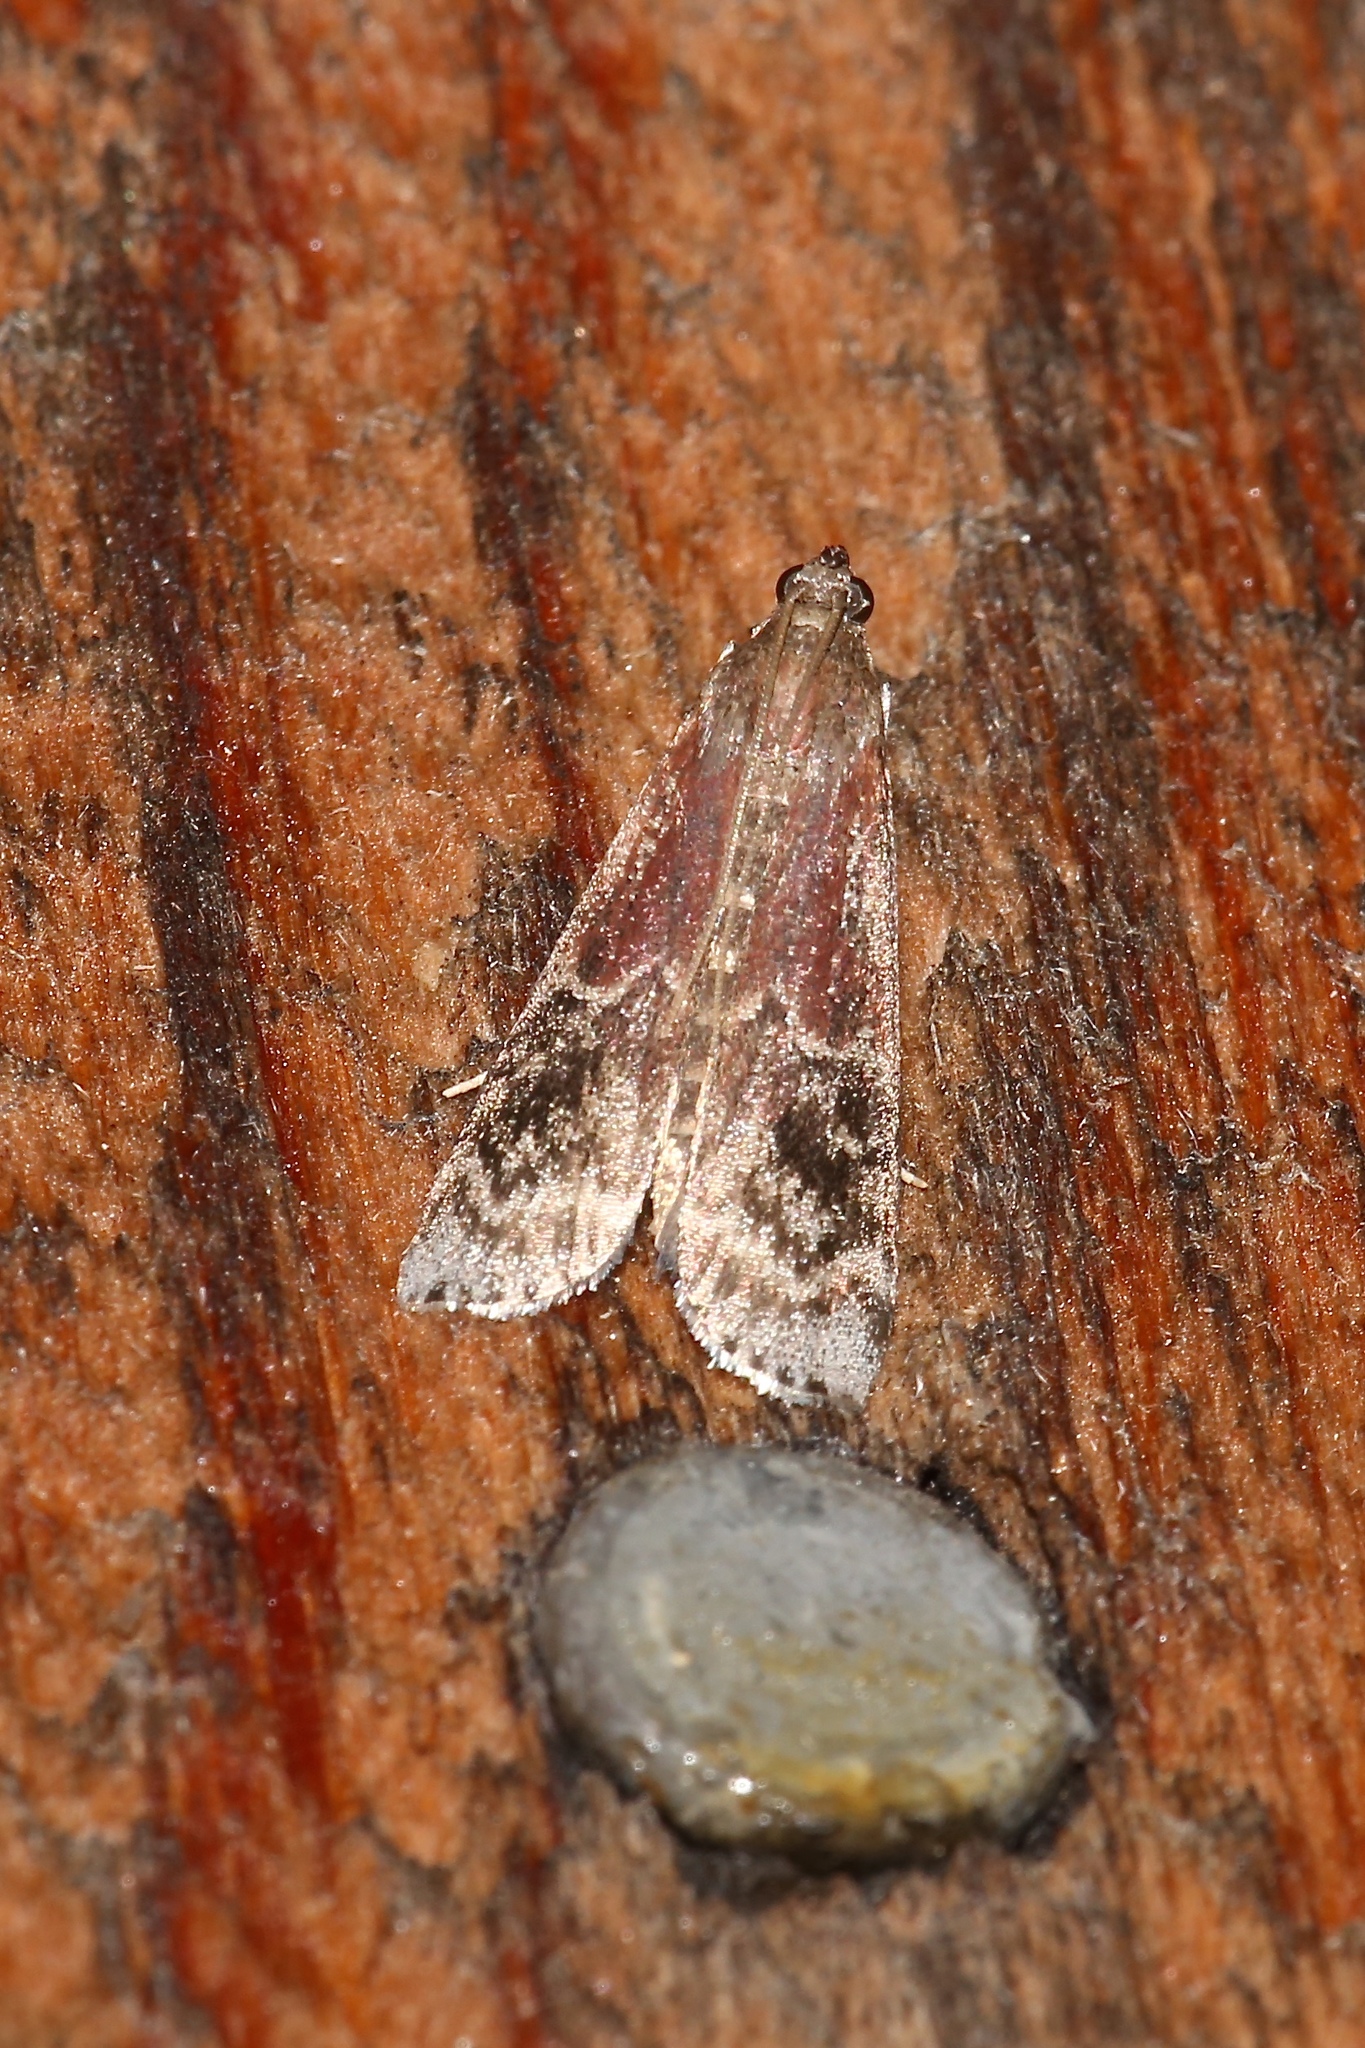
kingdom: Animalia
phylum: Arthropoda
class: Insecta
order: Lepidoptera
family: Pyralidae
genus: Euzophera
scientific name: Euzophera semifuneralis
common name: American plum borer moth
